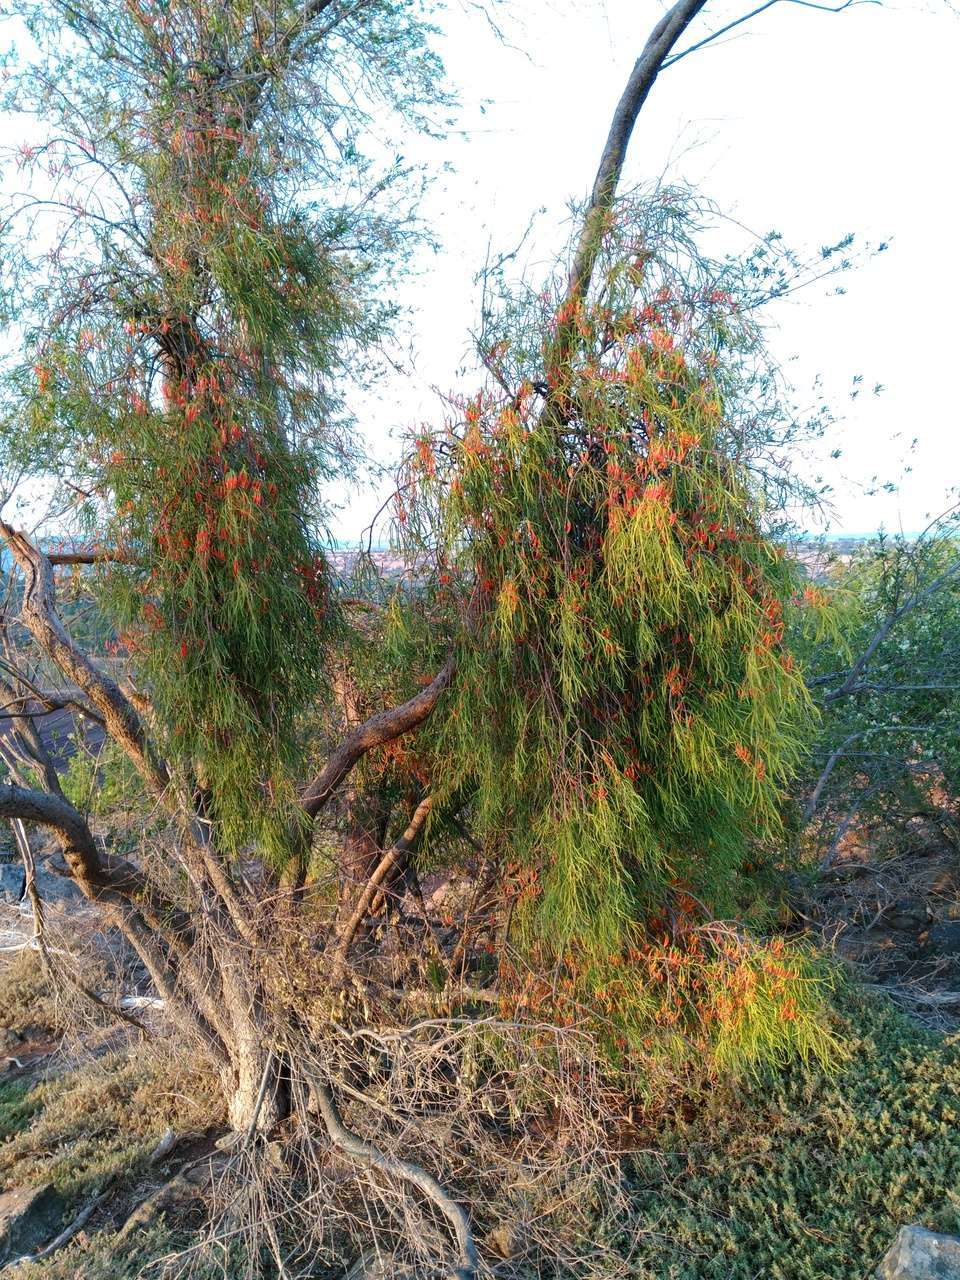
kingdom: Plantae
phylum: Tracheophyta
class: Magnoliopsida
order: Santalales
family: Loranthaceae
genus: Lysiana
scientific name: Lysiana exocarpi
